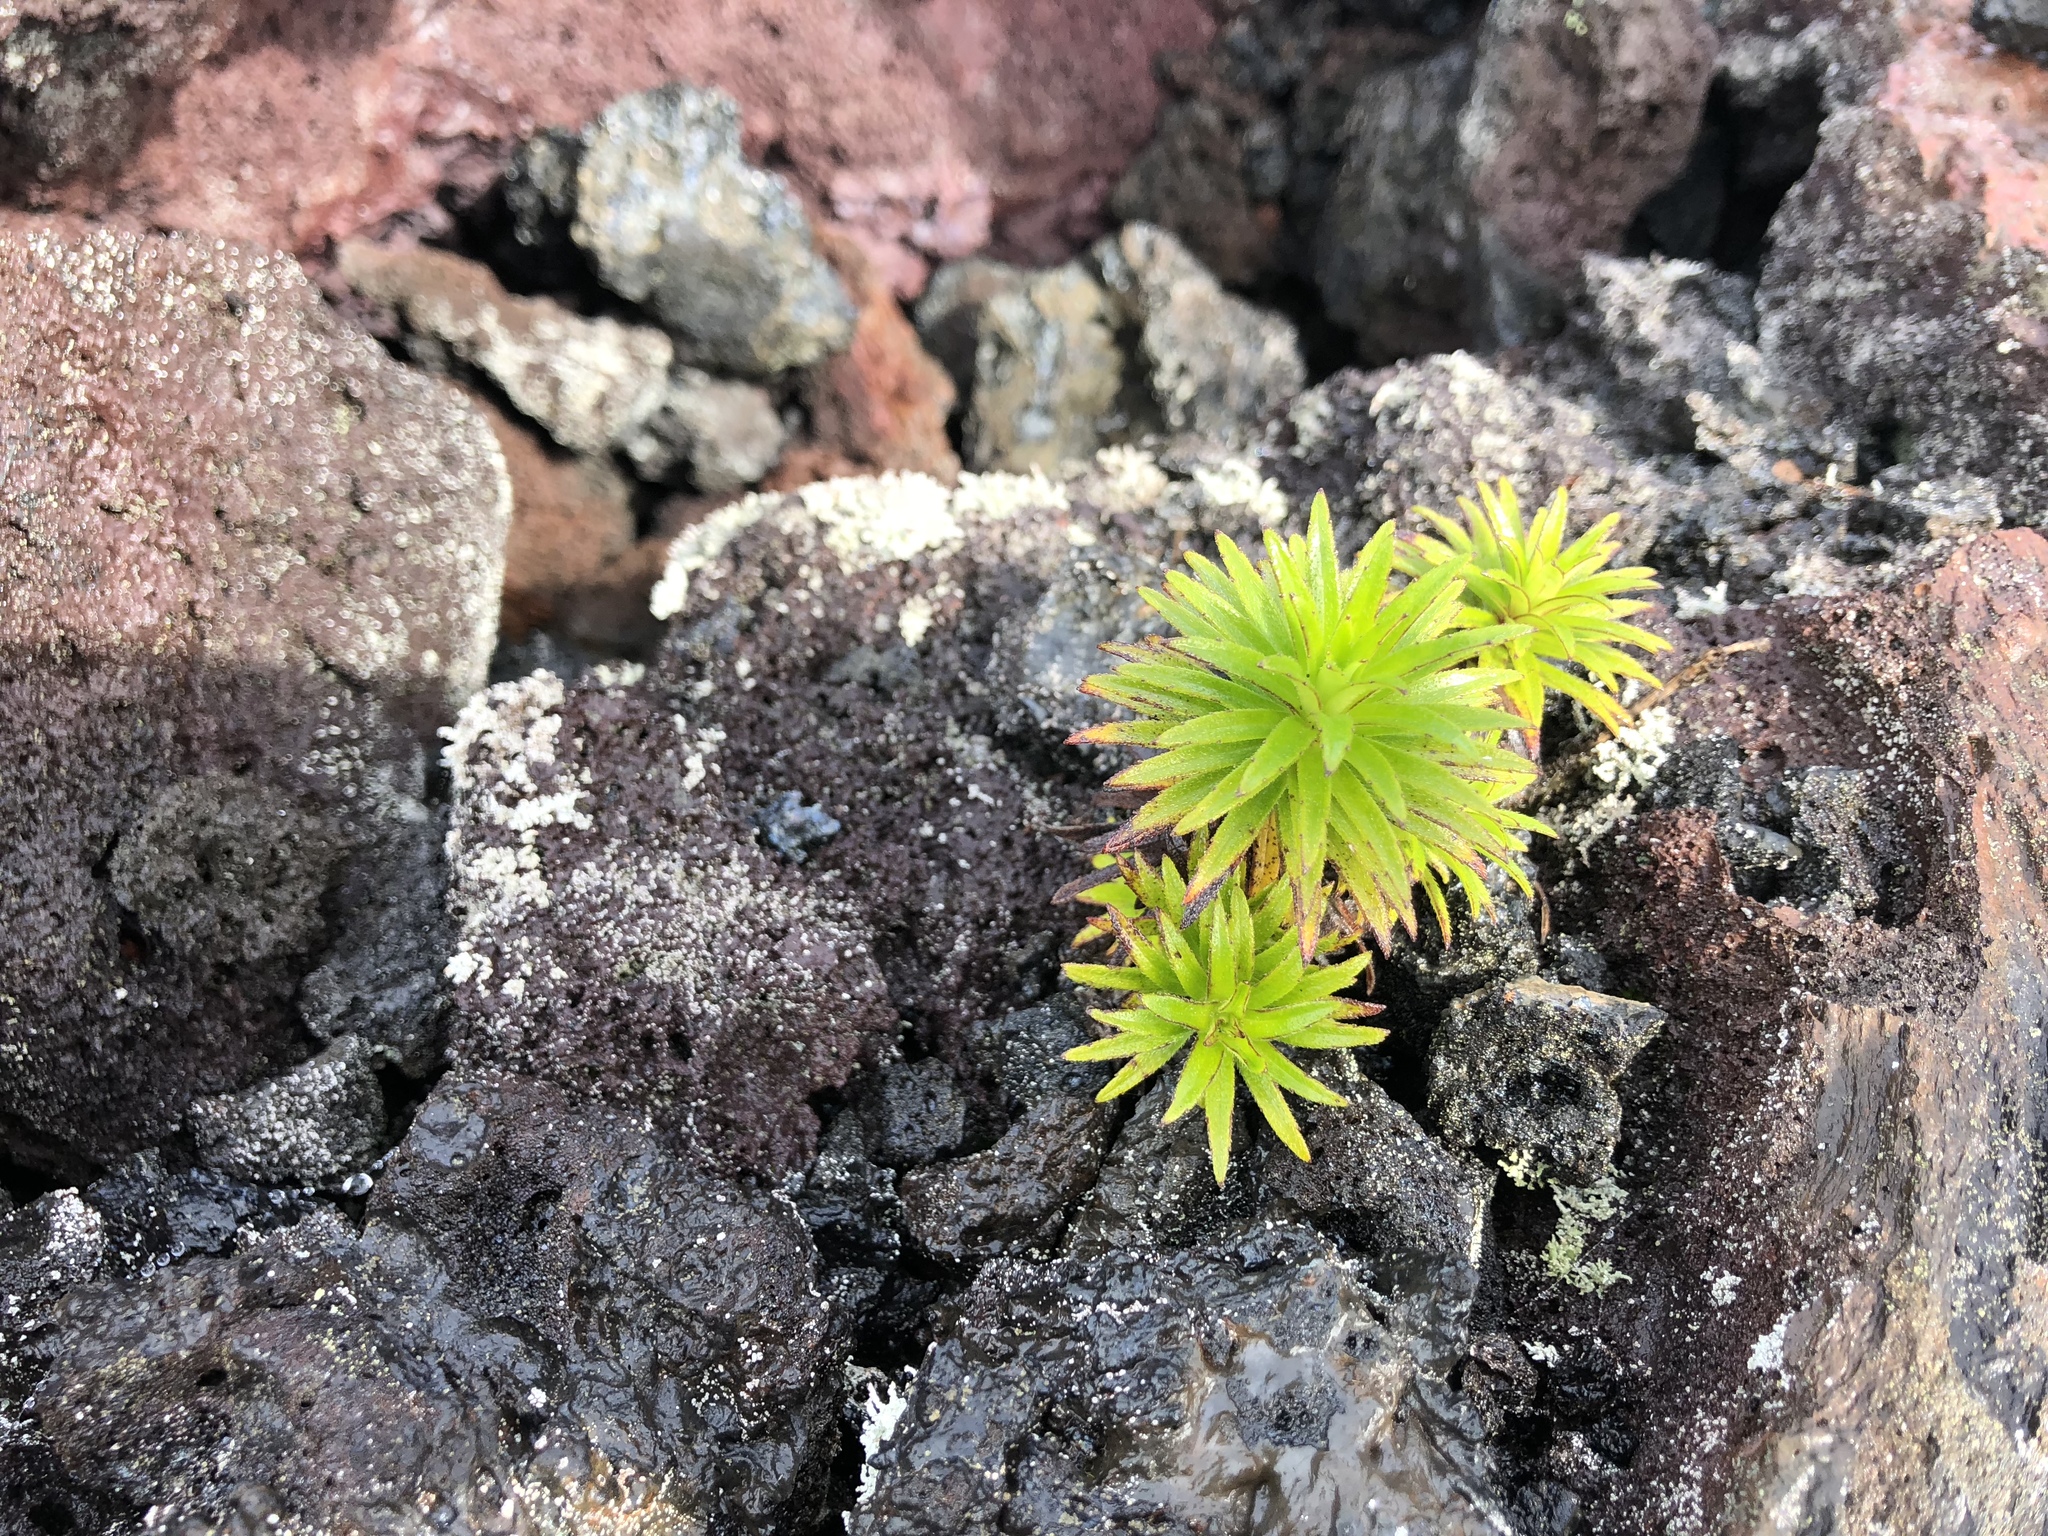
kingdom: Plantae
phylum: Tracheophyta
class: Magnoliopsida
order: Asterales
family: Asteraceae
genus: Dubautia
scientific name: Dubautia scabra
